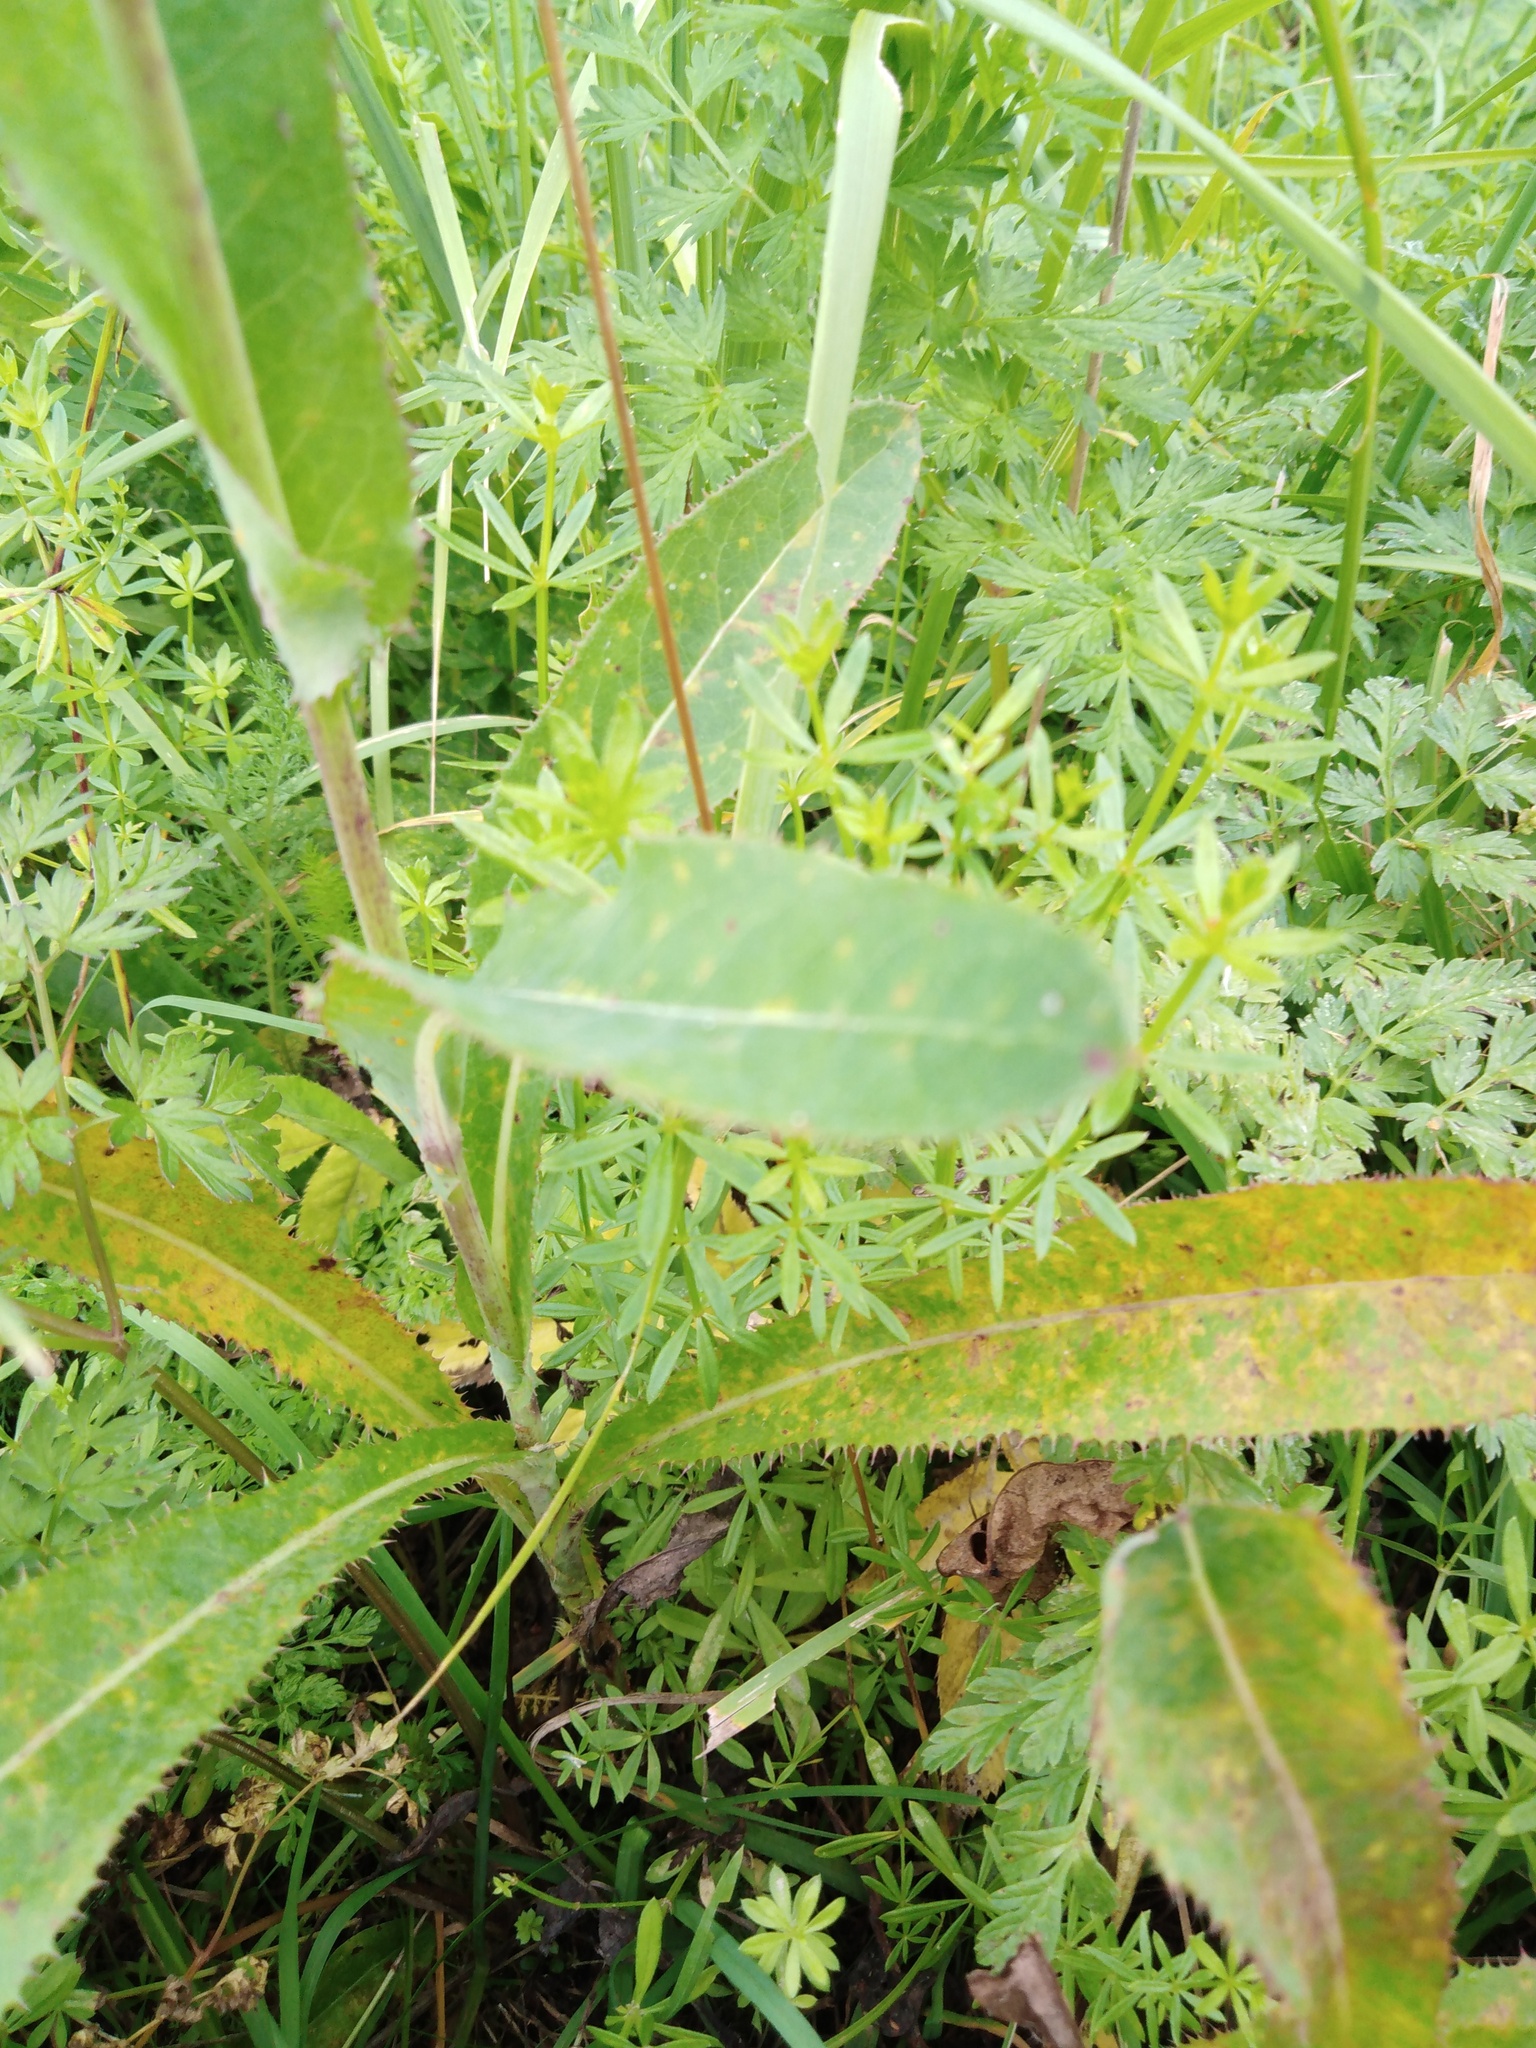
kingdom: Plantae
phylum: Tracheophyta
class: Magnoliopsida
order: Asterales
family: Asteraceae
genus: Sonchus
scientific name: Sonchus arvensis
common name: Perennial sow-thistle
